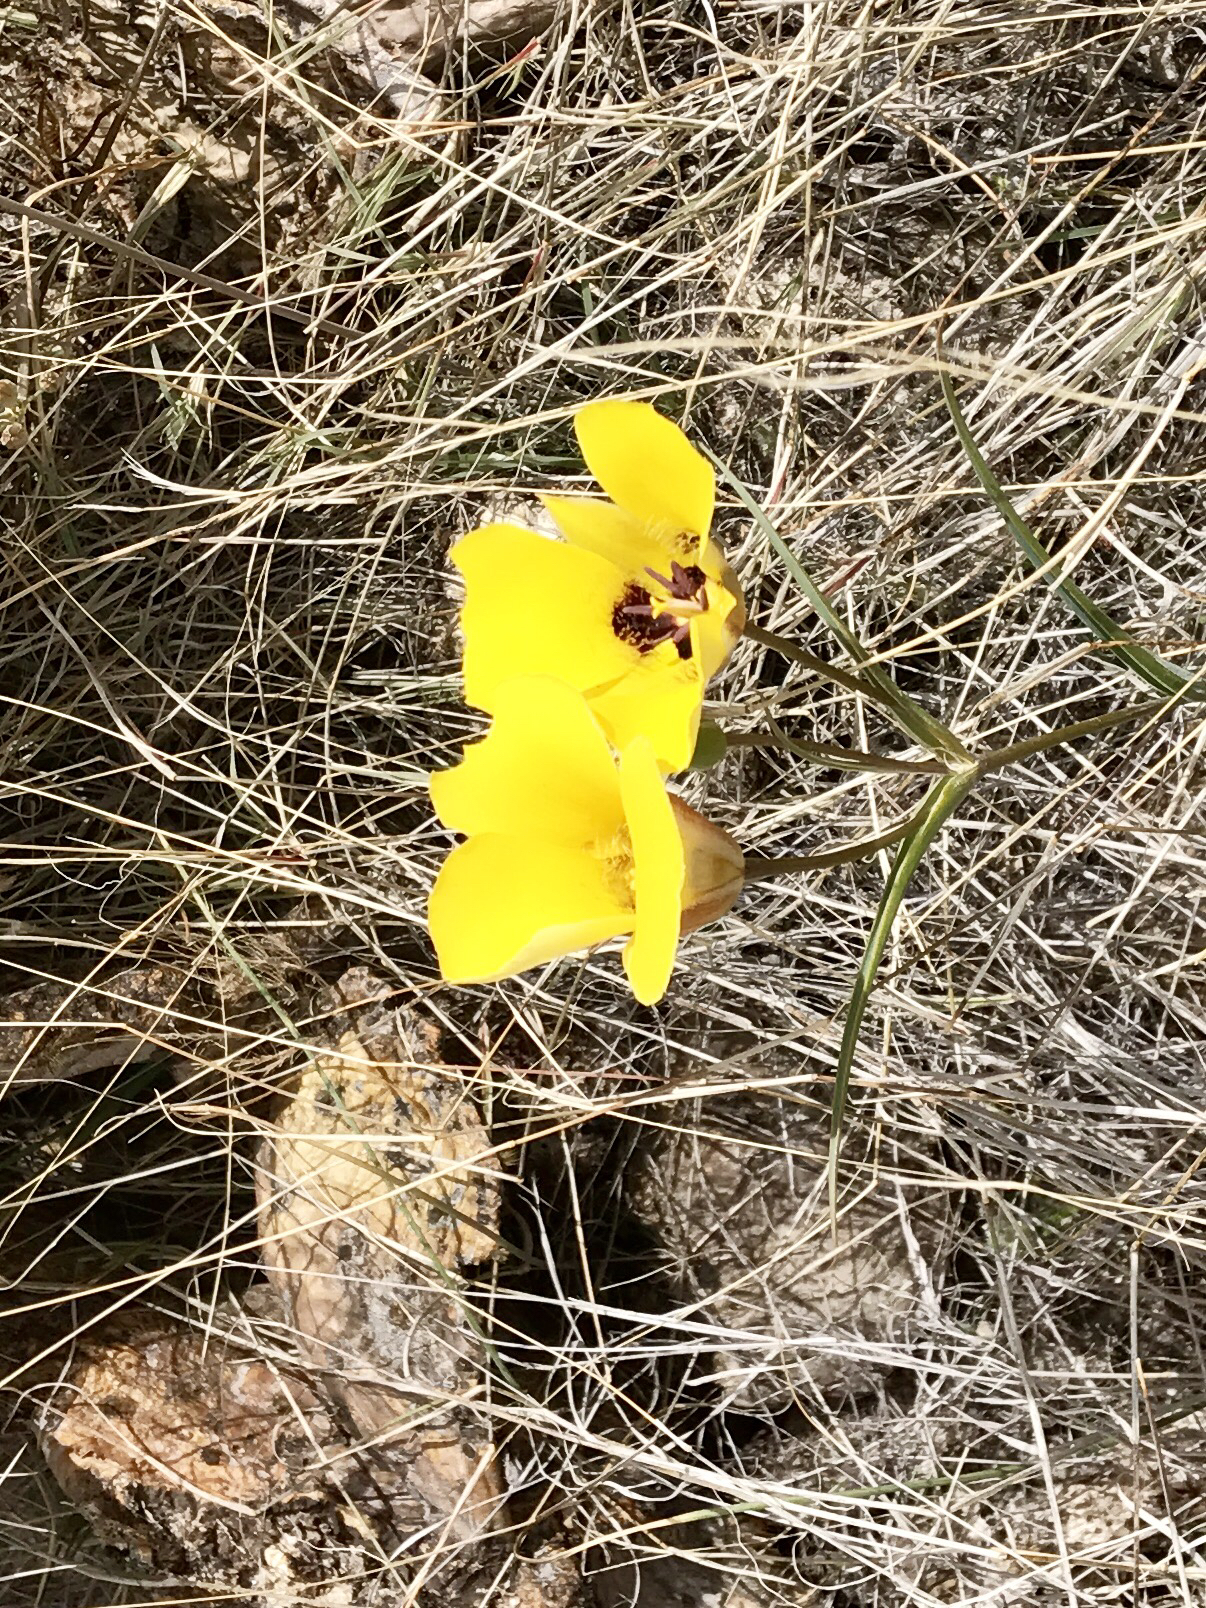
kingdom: Plantae
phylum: Tracheophyta
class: Liliopsida
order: Liliales
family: Liliaceae
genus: Calochortus
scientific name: Calochortus kennedyi
